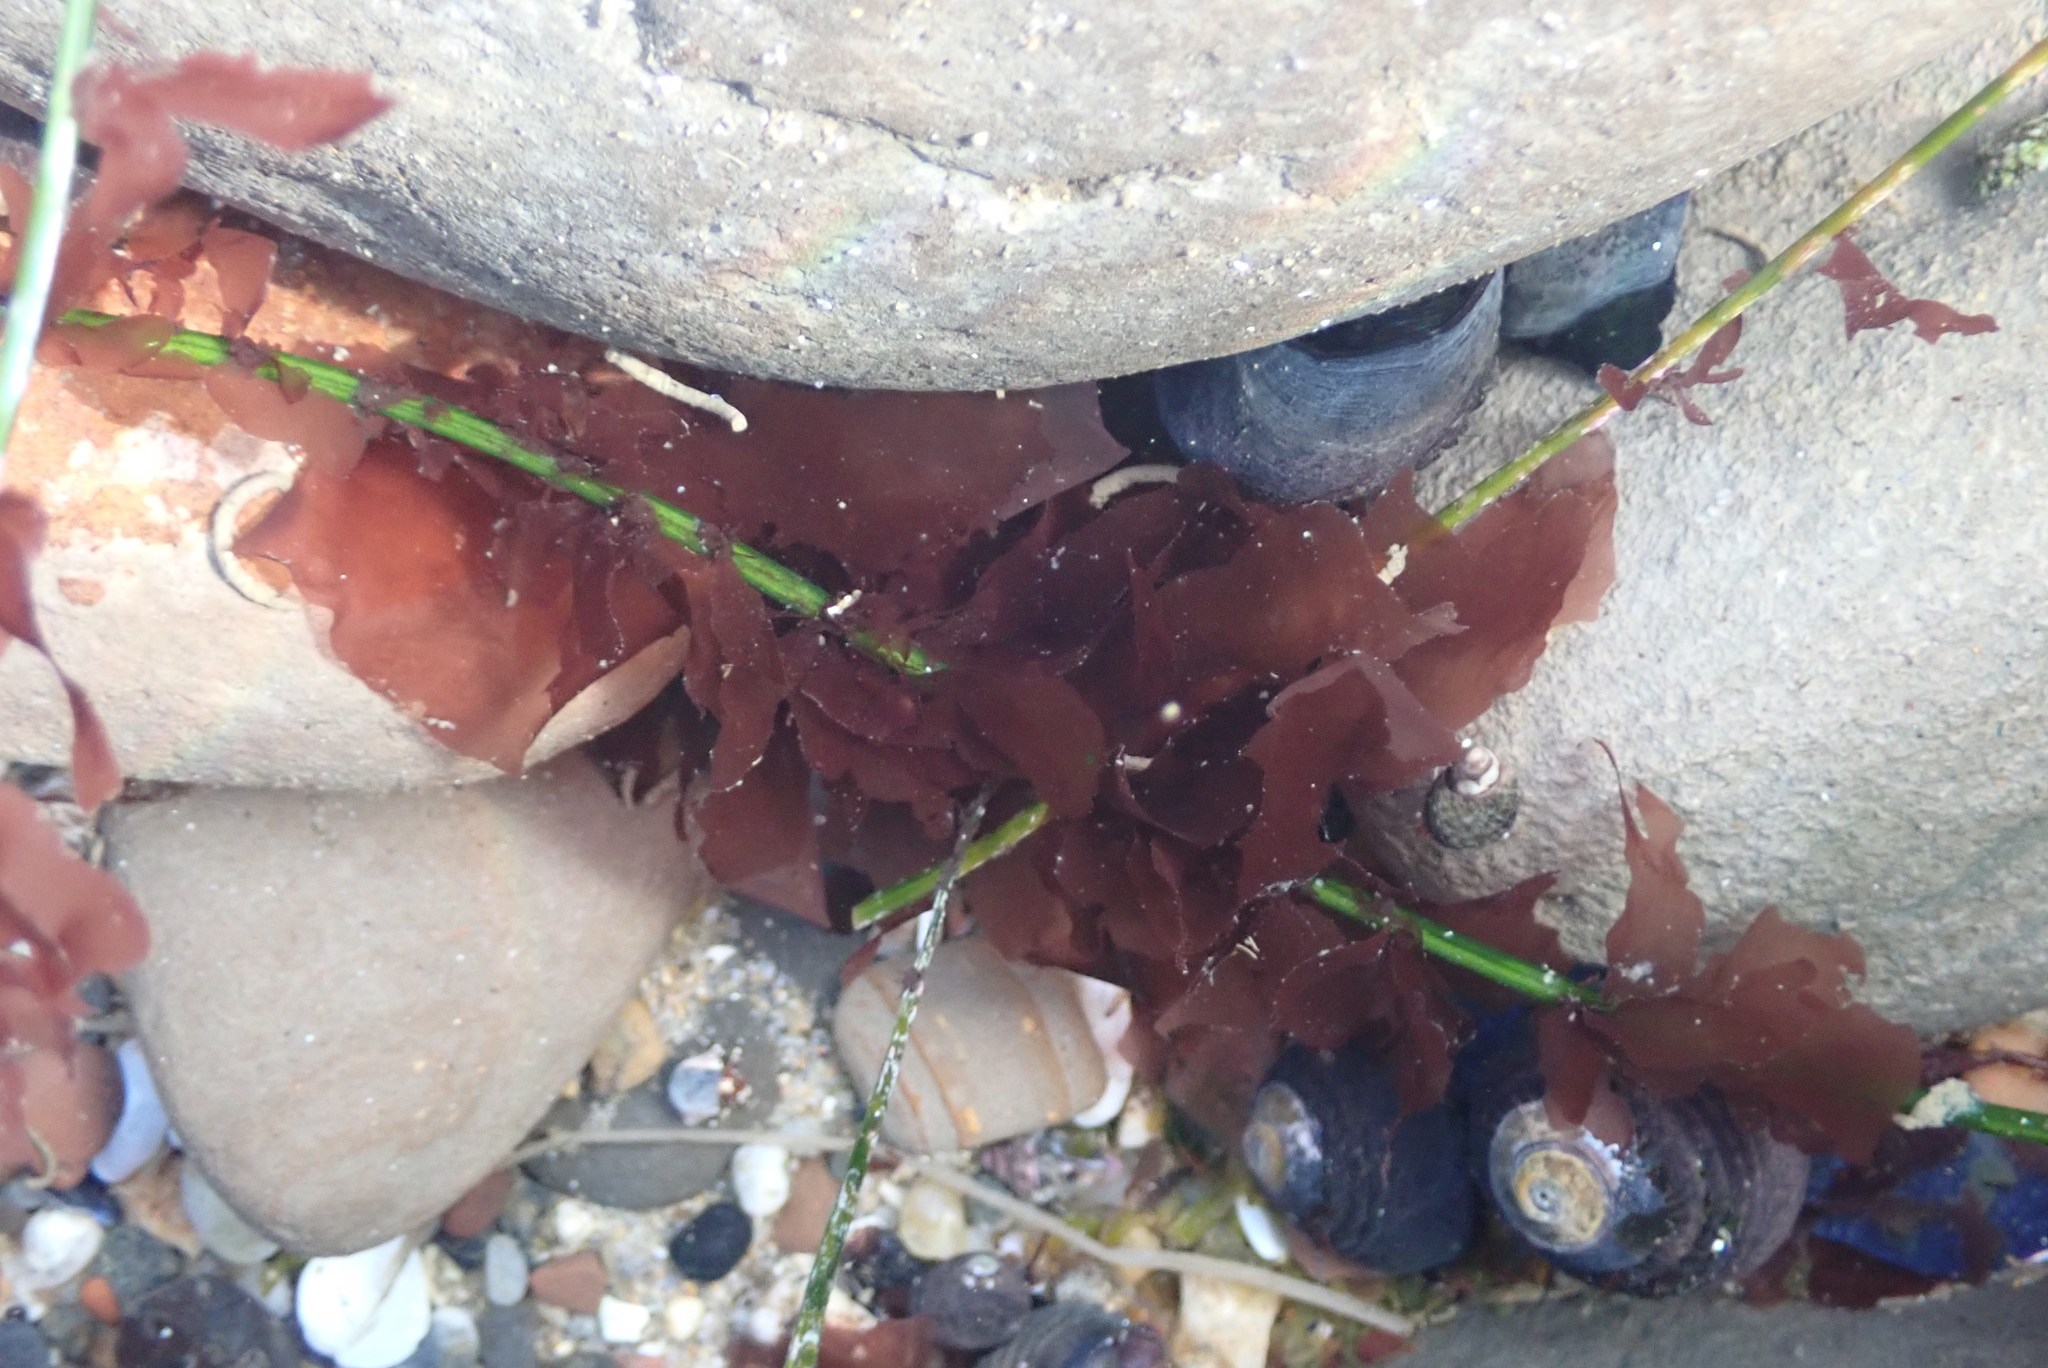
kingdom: Plantae
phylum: Rhodophyta
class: Compsopogonophyceae
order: Erythropeltidales
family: Erythrotrichiaceae
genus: Smithora
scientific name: Smithora naiadum
